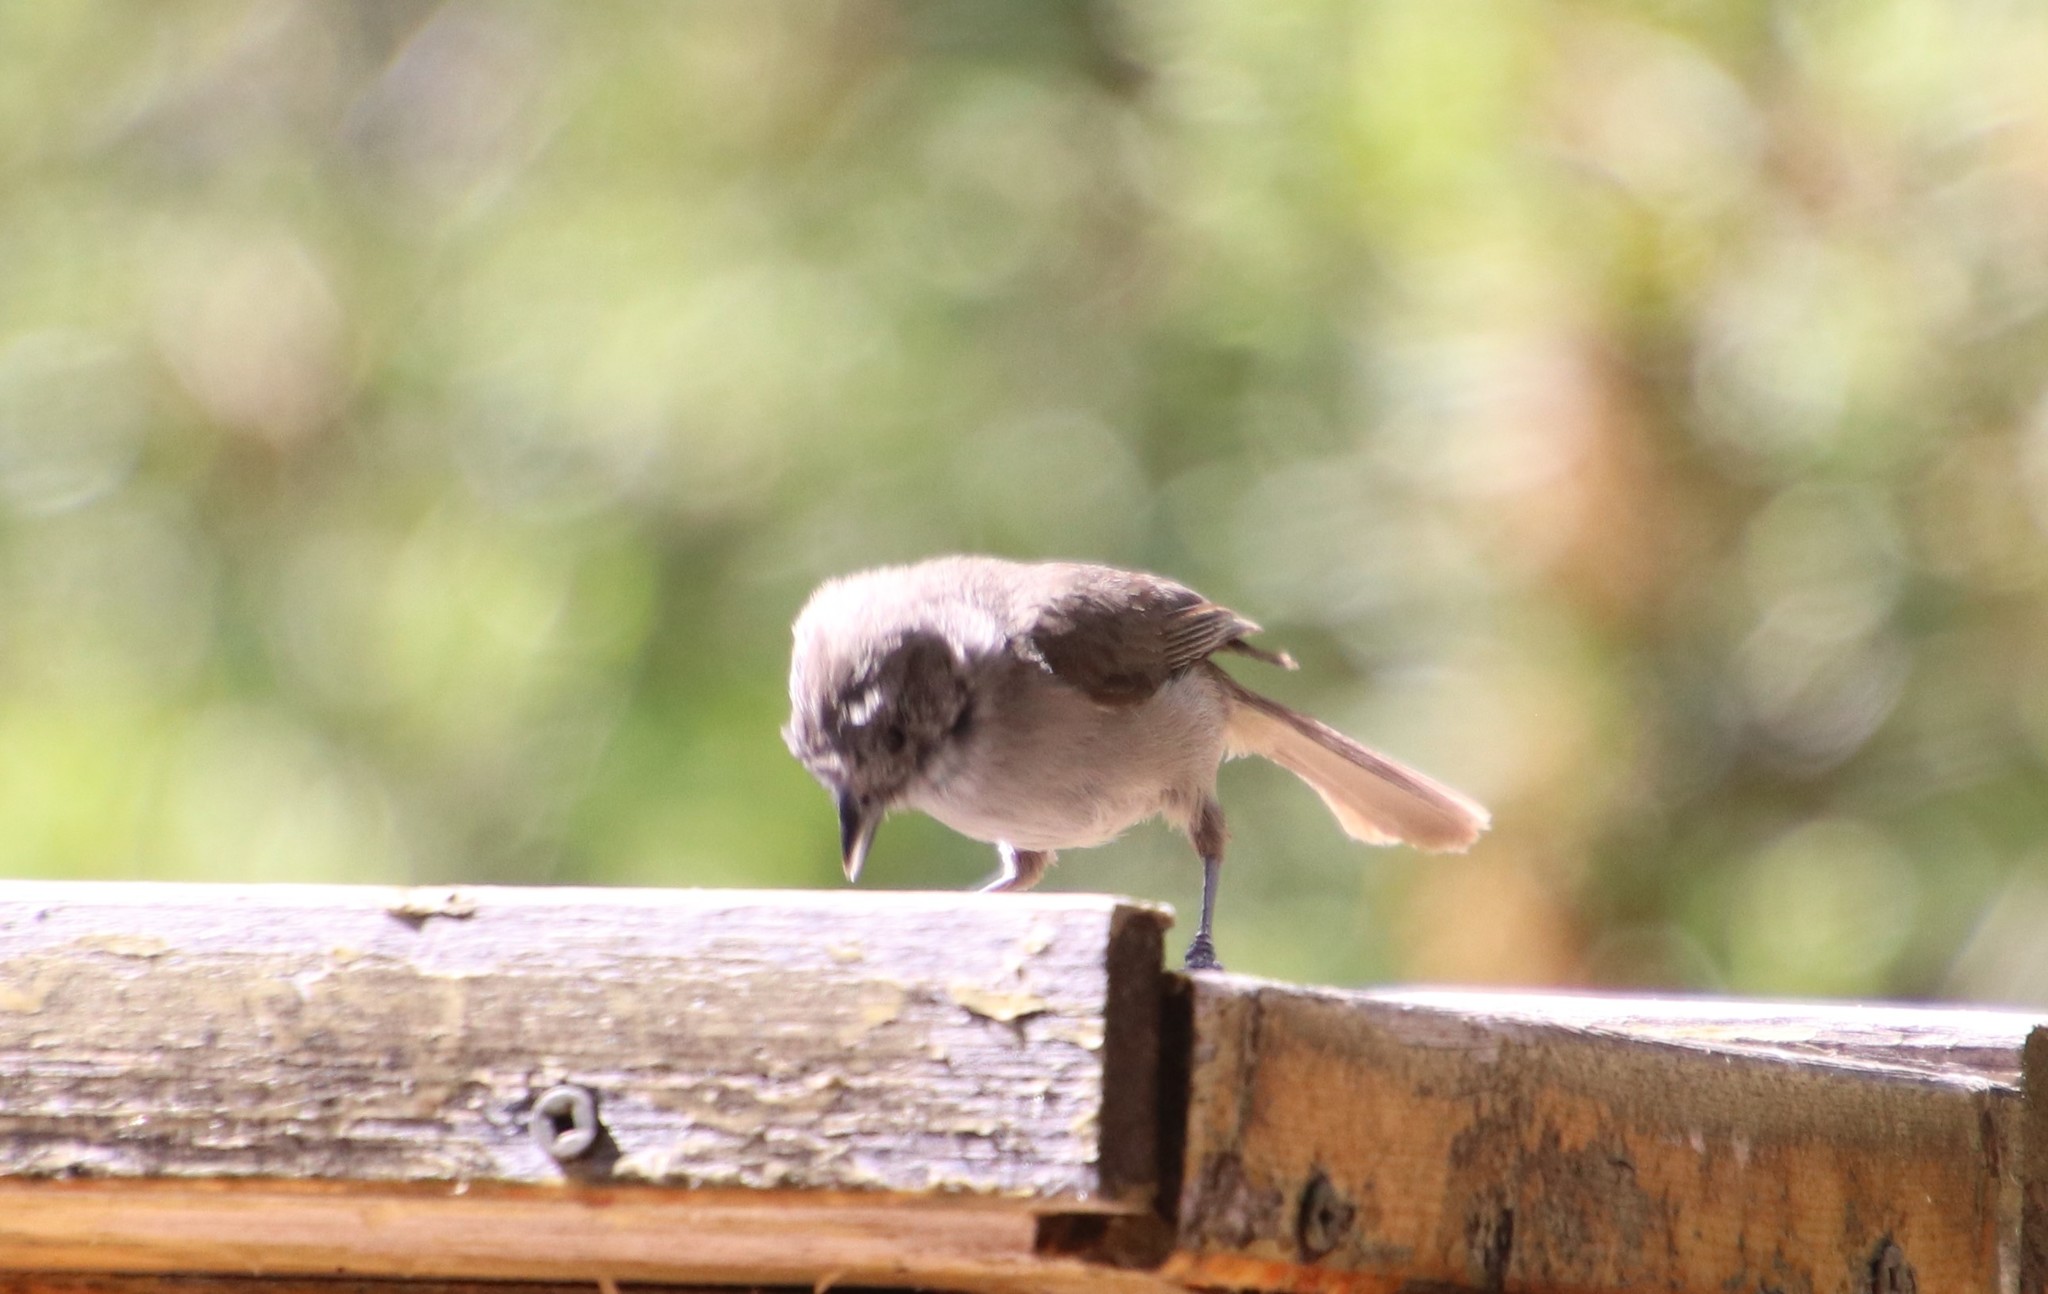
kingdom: Animalia
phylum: Chordata
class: Aves
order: Passeriformes
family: Paridae
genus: Baeolophus
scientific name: Baeolophus inornatus
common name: Oak titmouse
